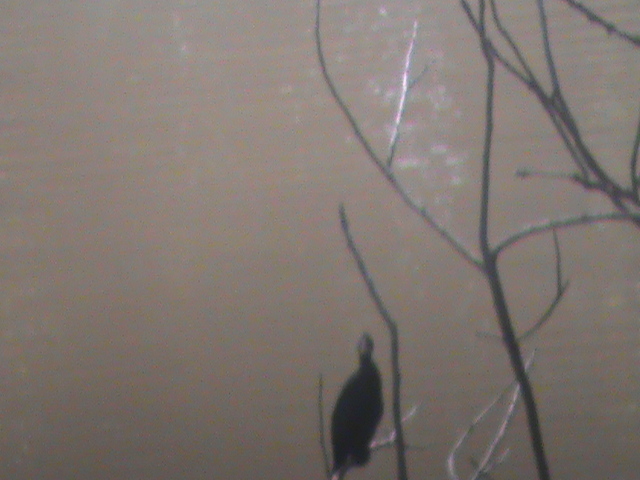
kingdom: Animalia
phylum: Chordata
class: Aves
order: Suliformes
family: Phalacrocoracidae
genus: Microcarbo
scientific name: Microcarbo niger
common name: Little cormorant
